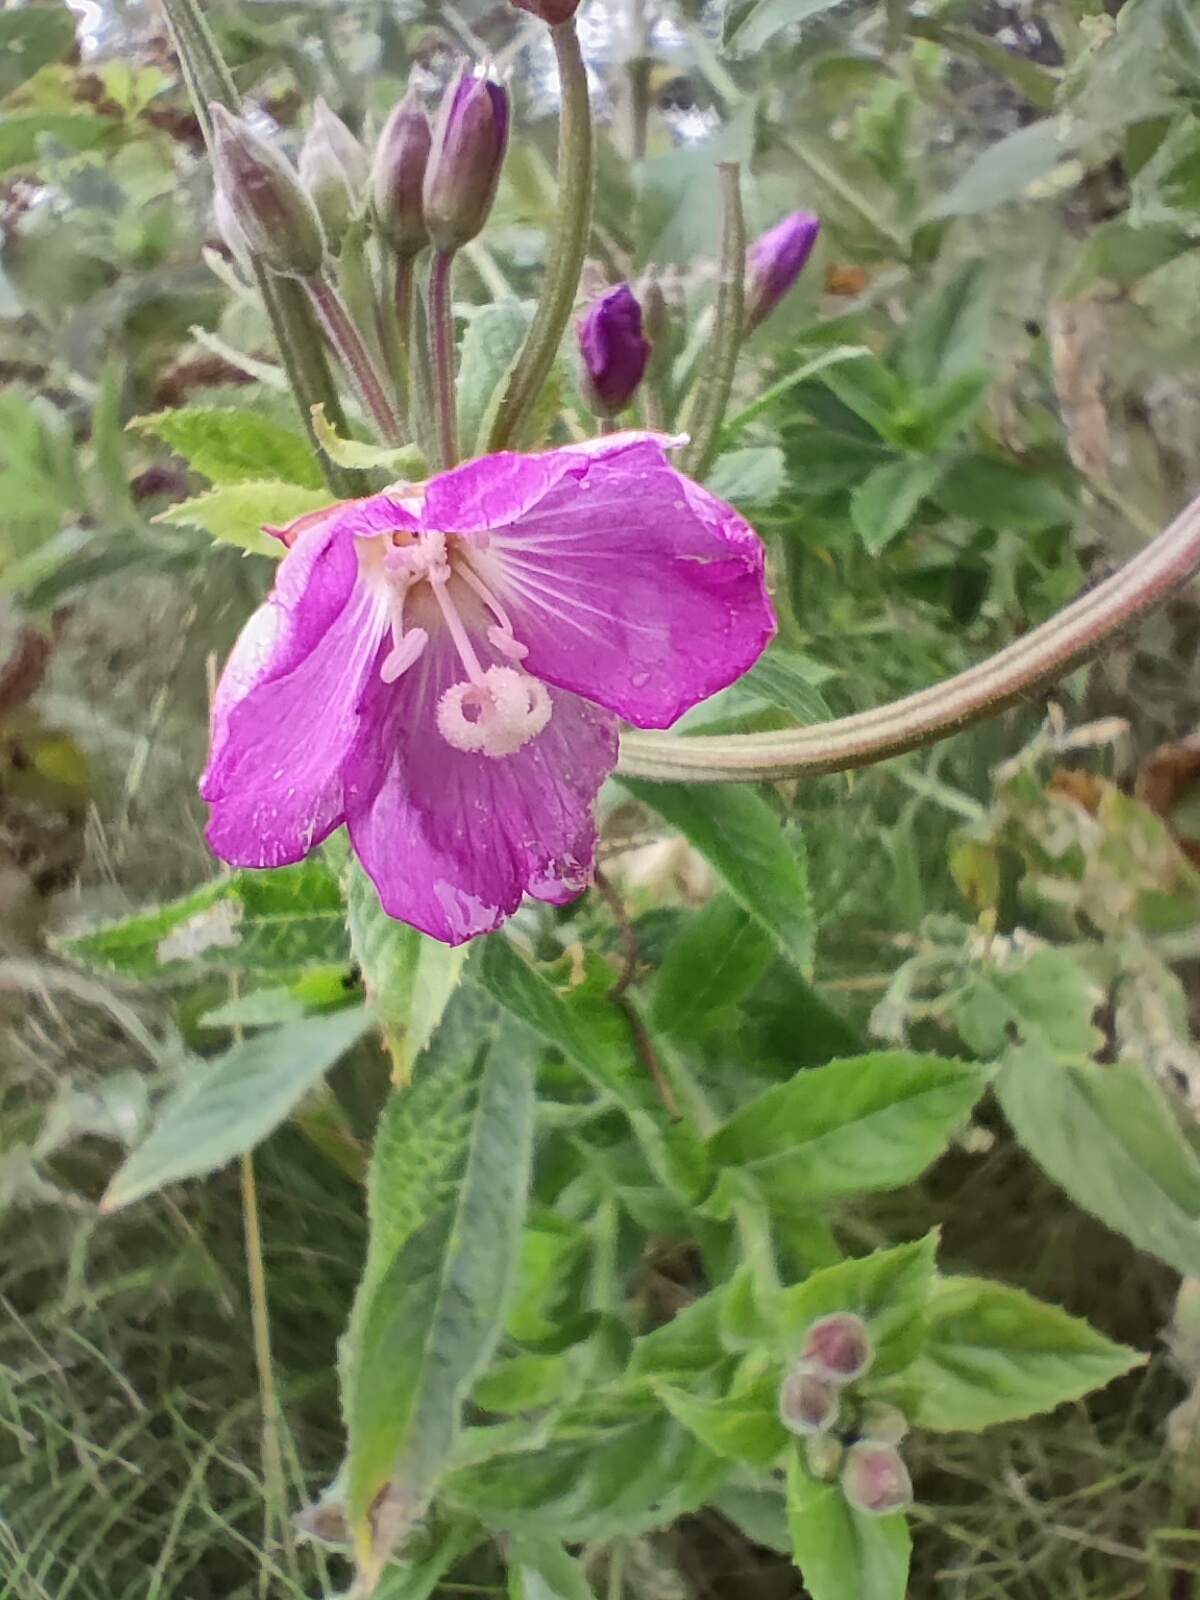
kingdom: Plantae
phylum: Tracheophyta
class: Magnoliopsida
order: Myrtales
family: Onagraceae
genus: Epilobium
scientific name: Epilobium hirsutum
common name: Great willowherb
